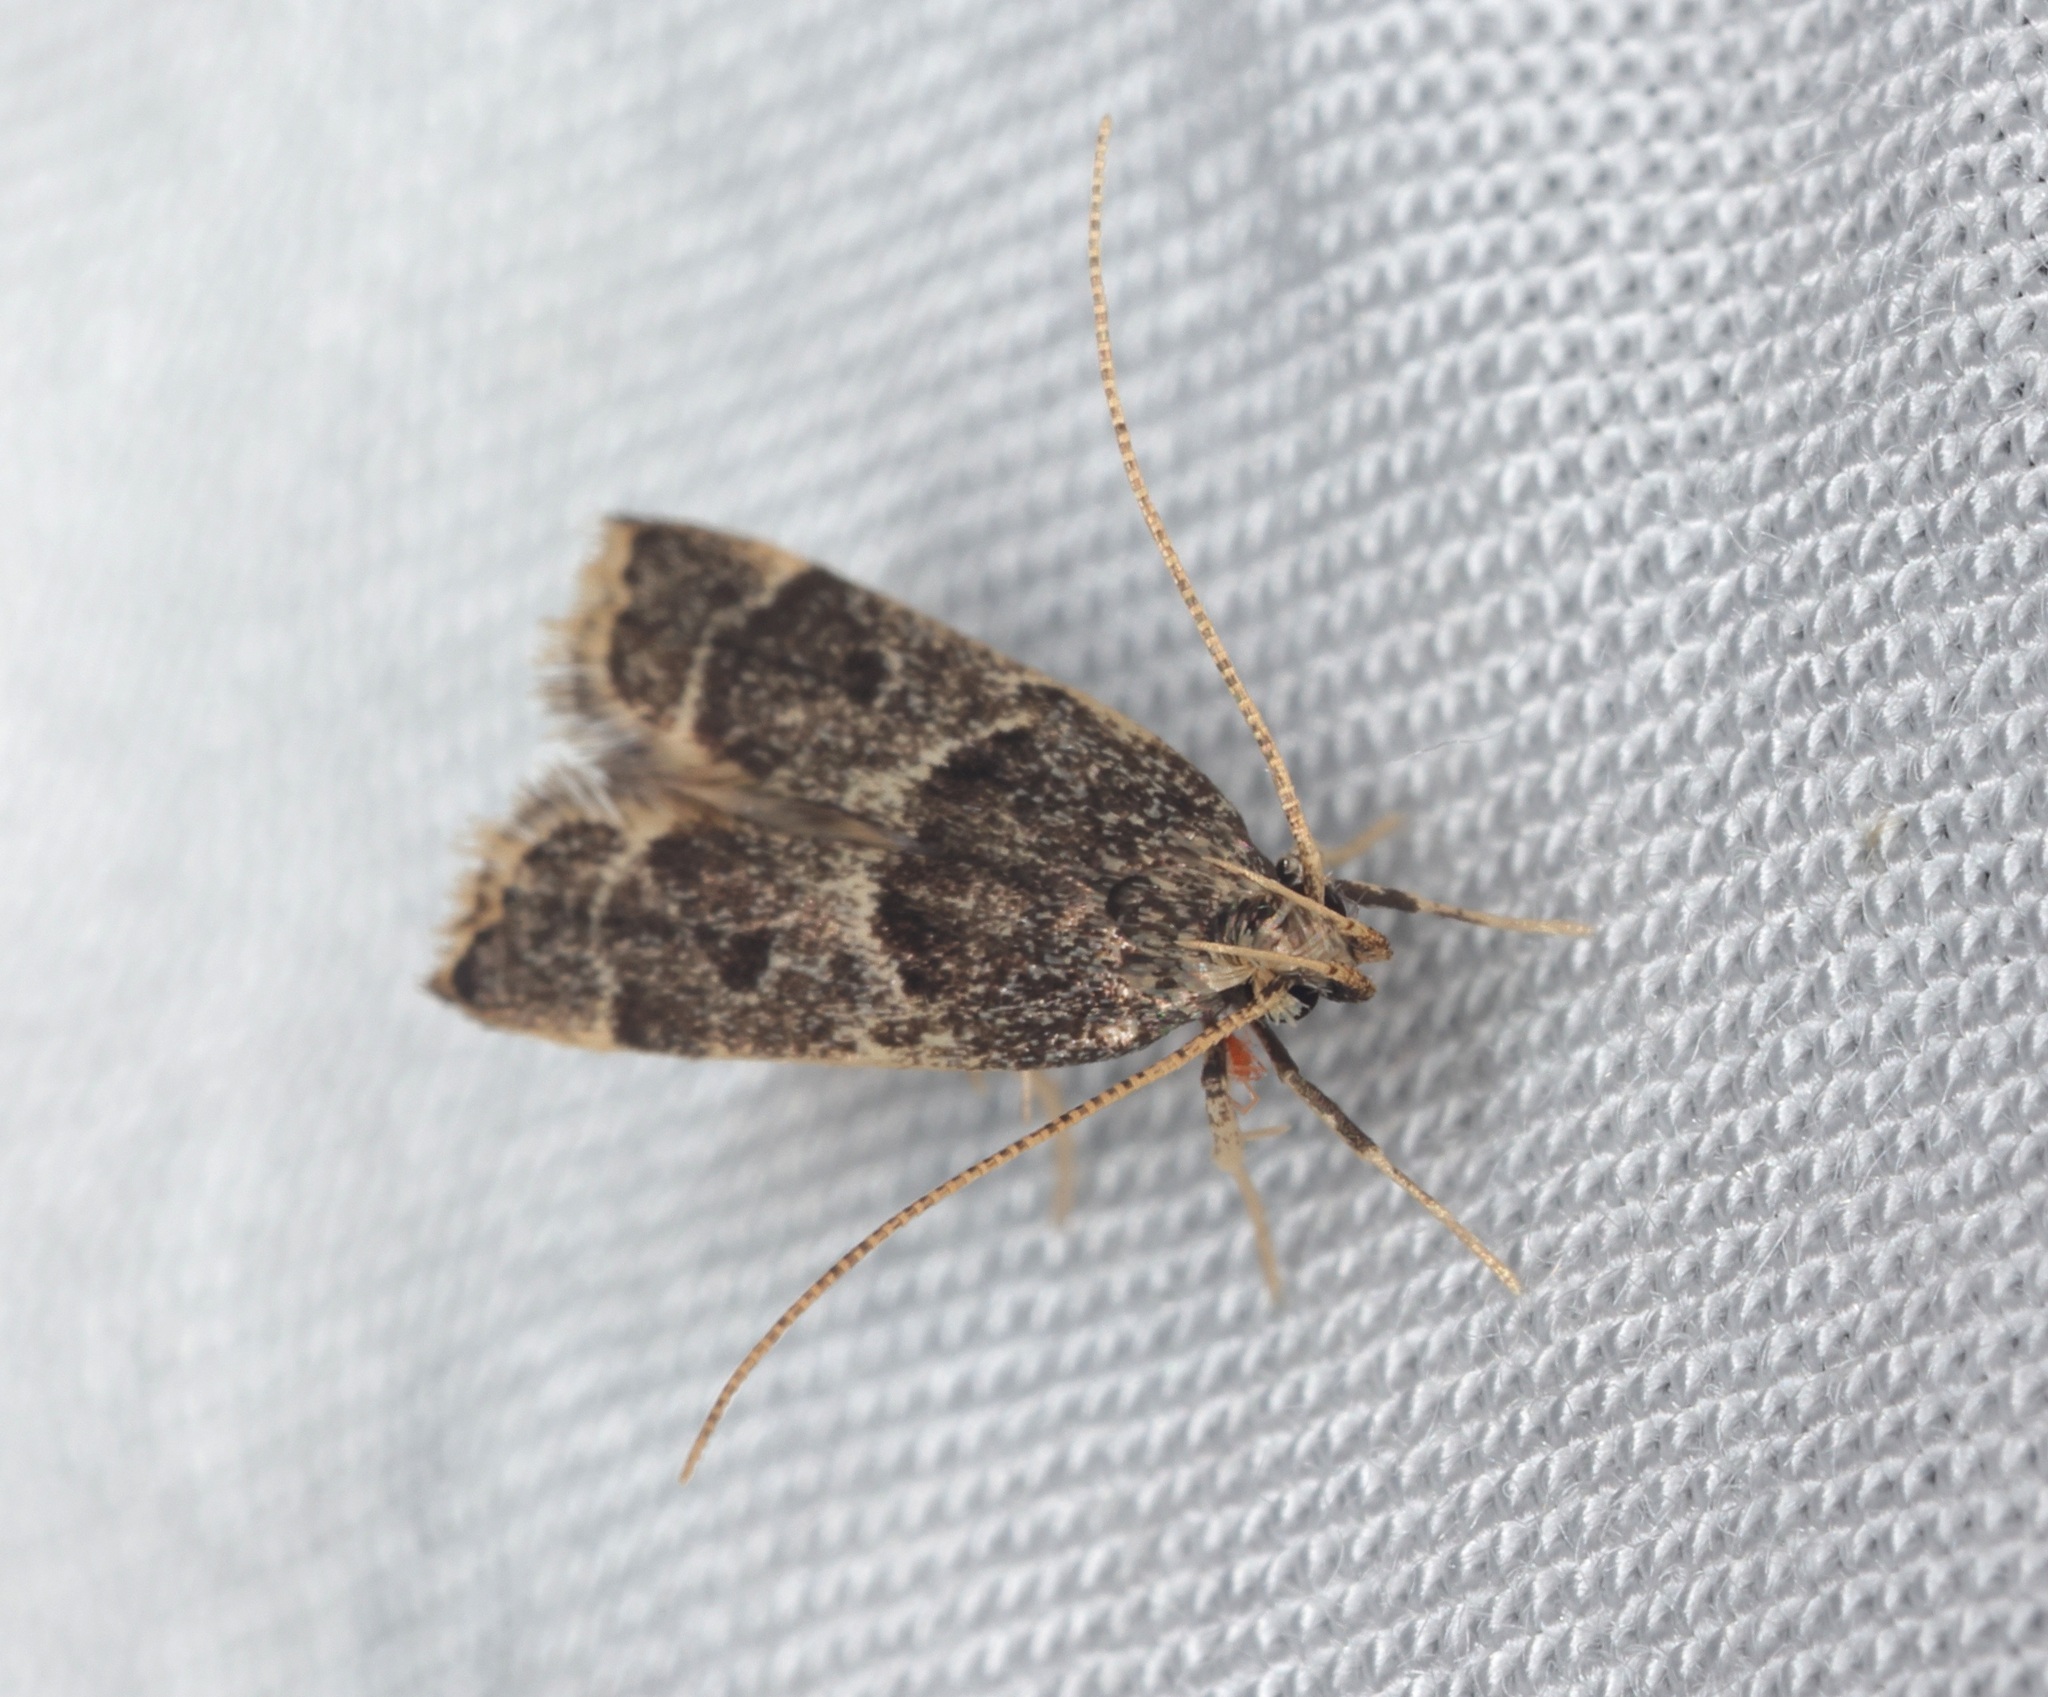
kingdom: Animalia
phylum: Arthropoda
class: Insecta
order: Lepidoptera
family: Lecithoceridae
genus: Athymoris
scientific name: Athymoris martialis
